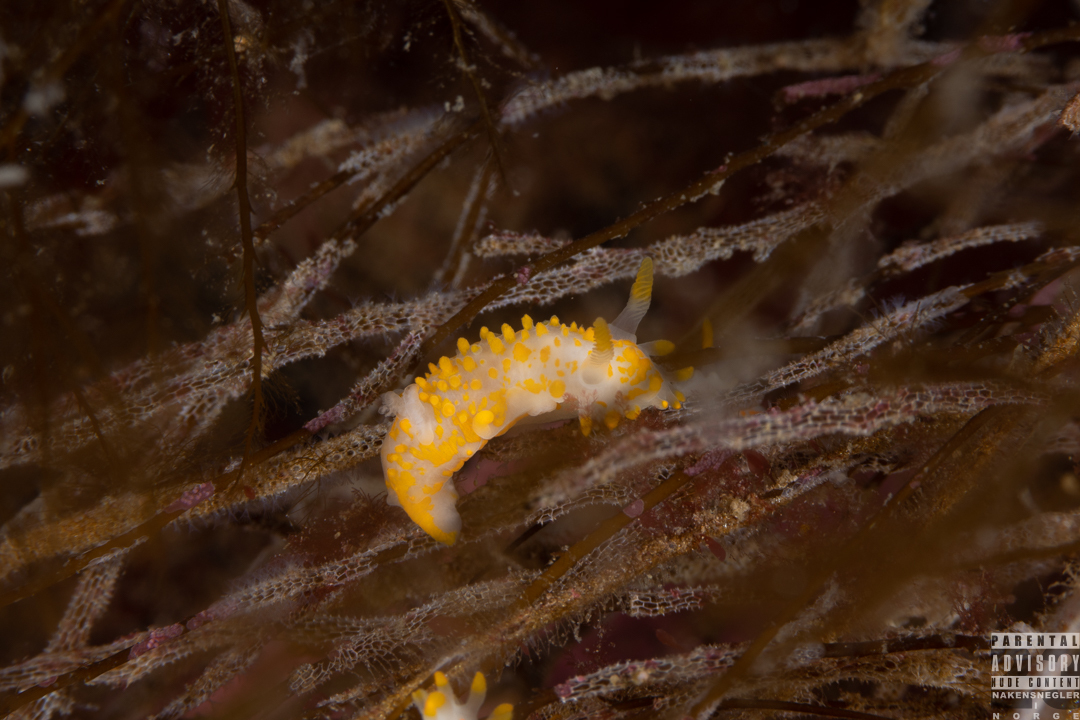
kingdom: Animalia
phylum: Mollusca
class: Gastropoda
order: Nudibranchia
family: Polyceridae
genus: Limacia
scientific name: Limacia clavigera
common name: Orange-clubbed sea slug
